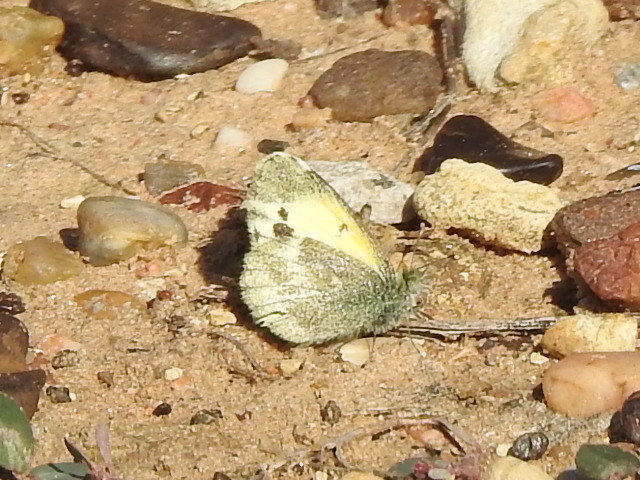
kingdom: Animalia
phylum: Arthropoda
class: Insecta
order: Lepidoptera
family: Pieridae
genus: Nathalis
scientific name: Nathalis iole
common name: Dainty sulphur
